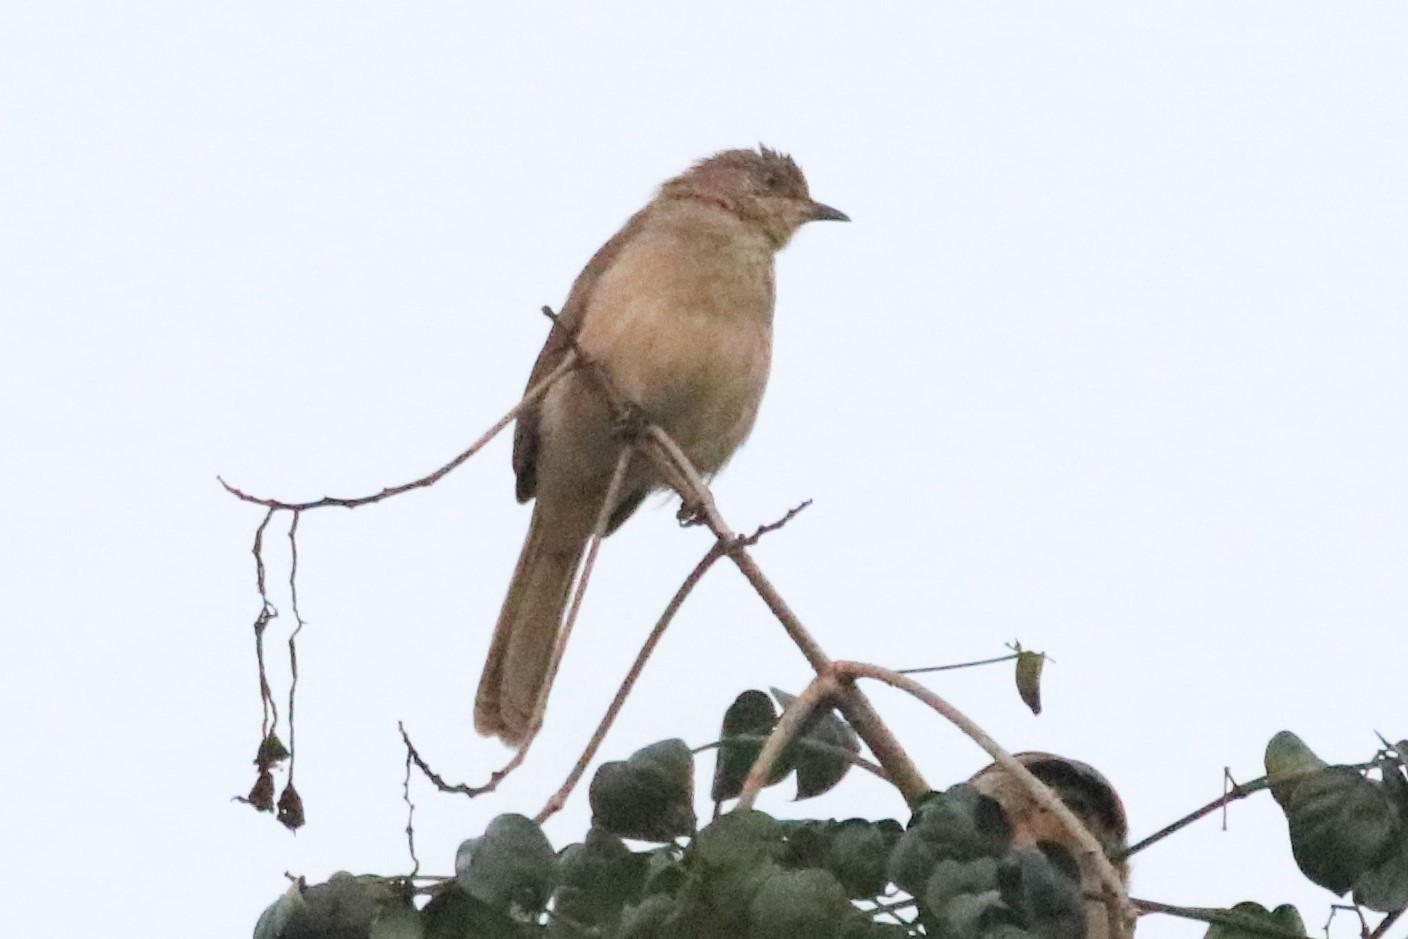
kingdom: Animalia
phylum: Chordata
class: Aves
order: Passeriformes
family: Pycnonotidae
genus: Pycnonotus
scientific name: Pycnonotus blanfordi
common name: Streak-eared bulbul
